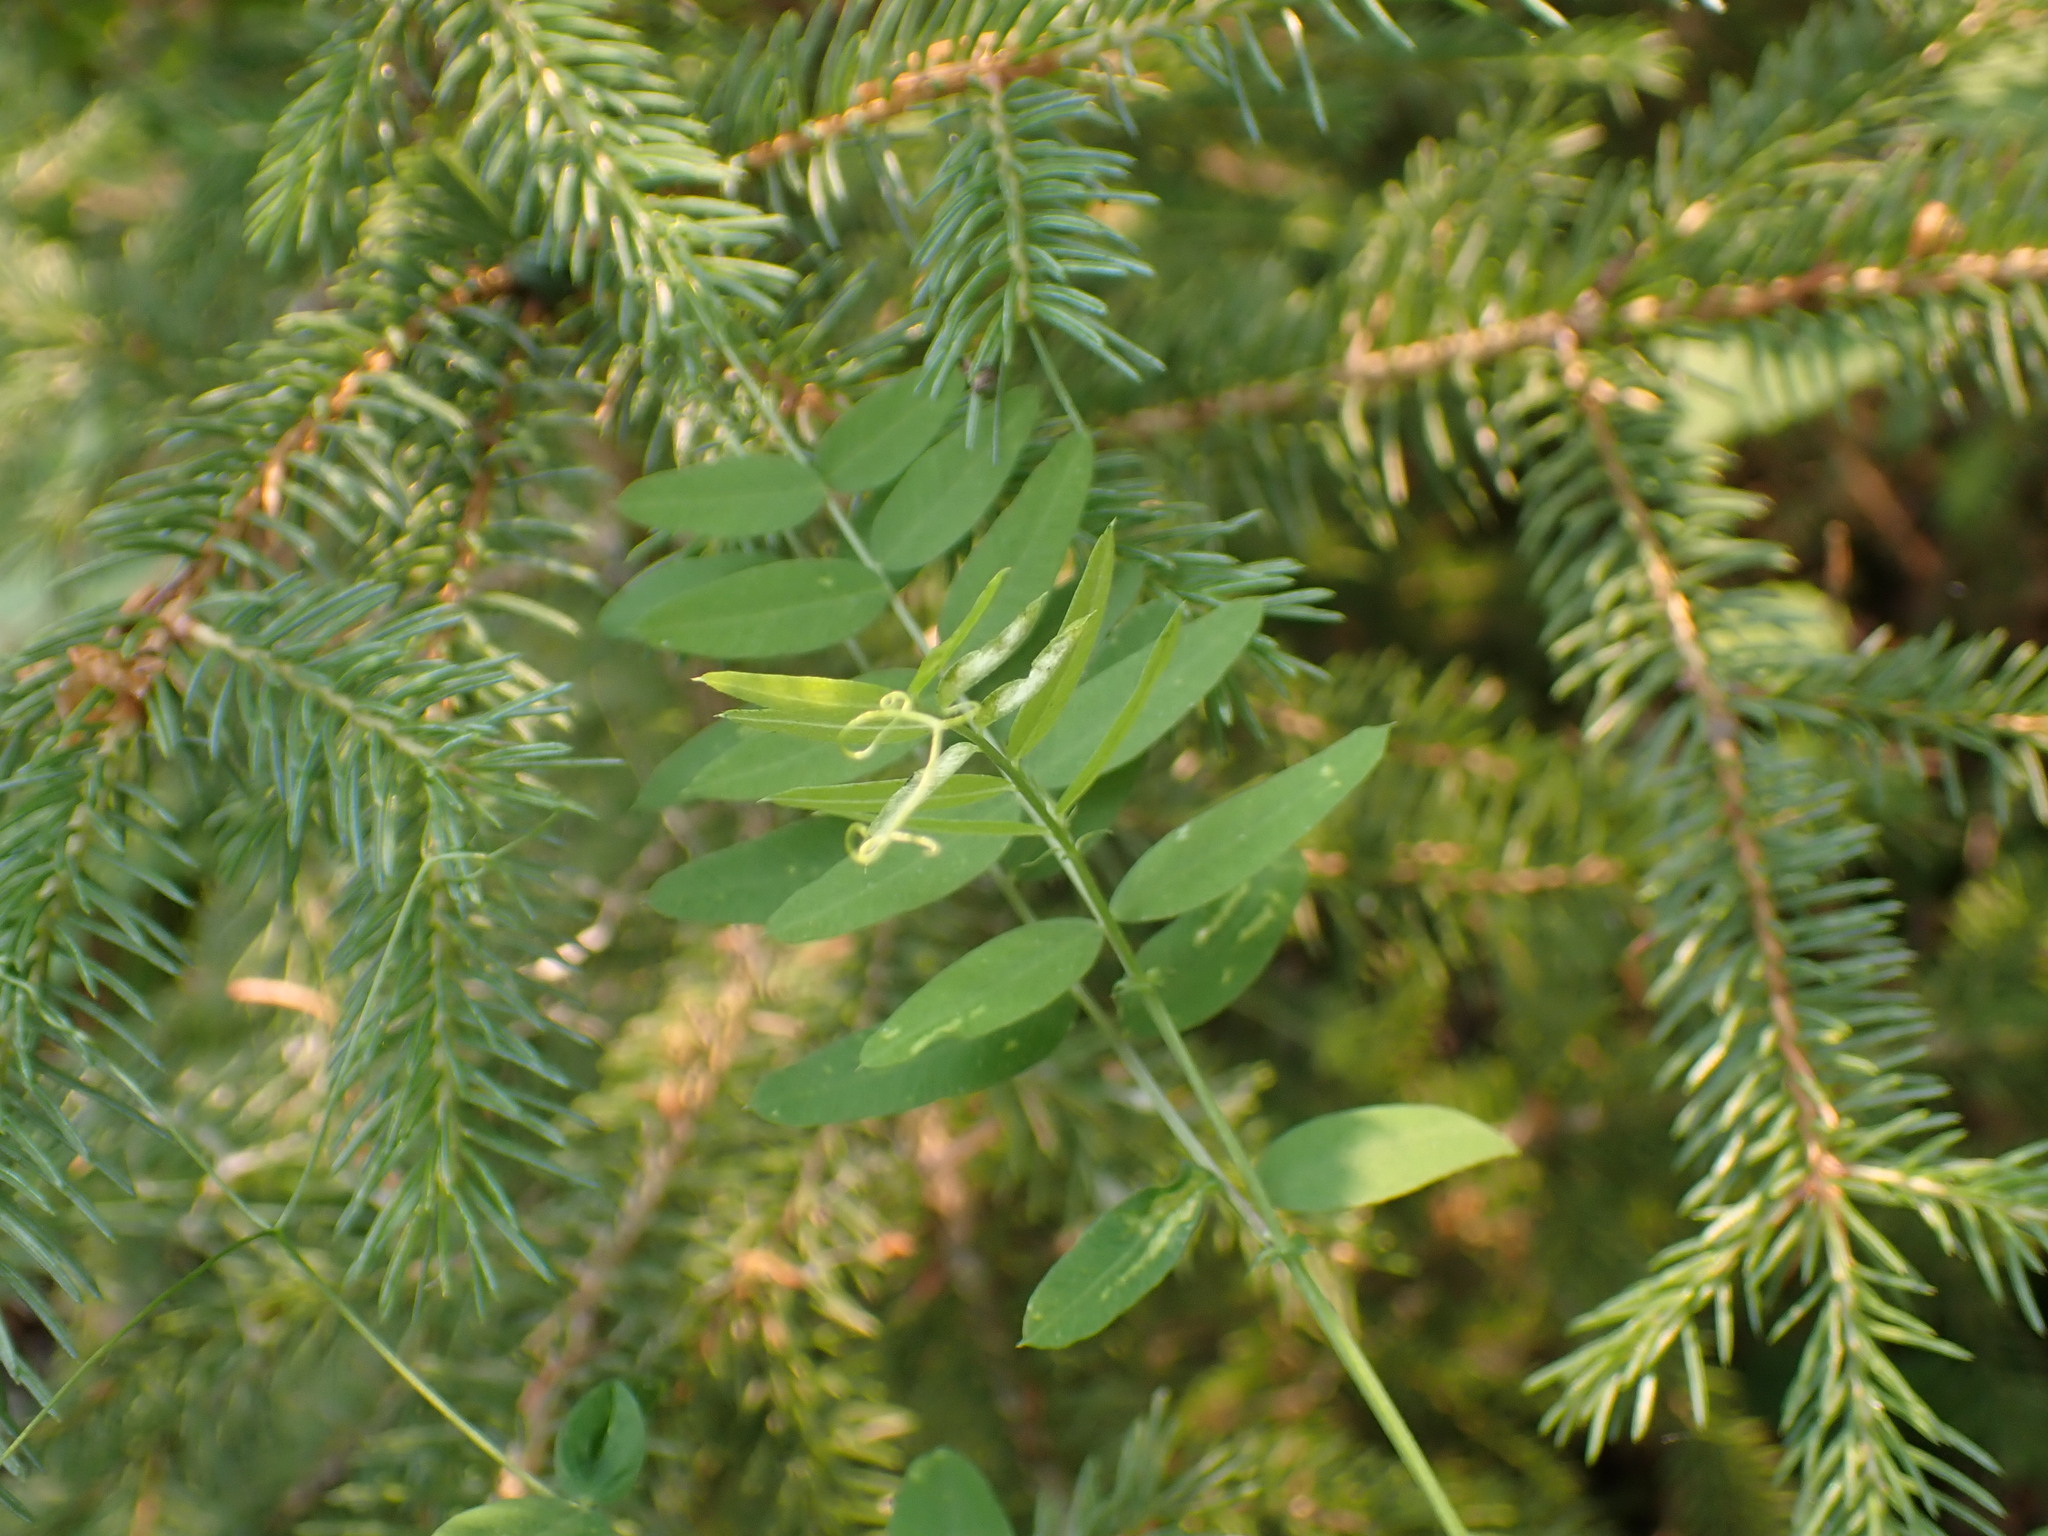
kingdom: Plantae
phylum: Tracheophyta
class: Magnoliopsida
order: Fabales
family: Fabaceae
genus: Vicia
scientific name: Vicia americana
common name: American vetch
